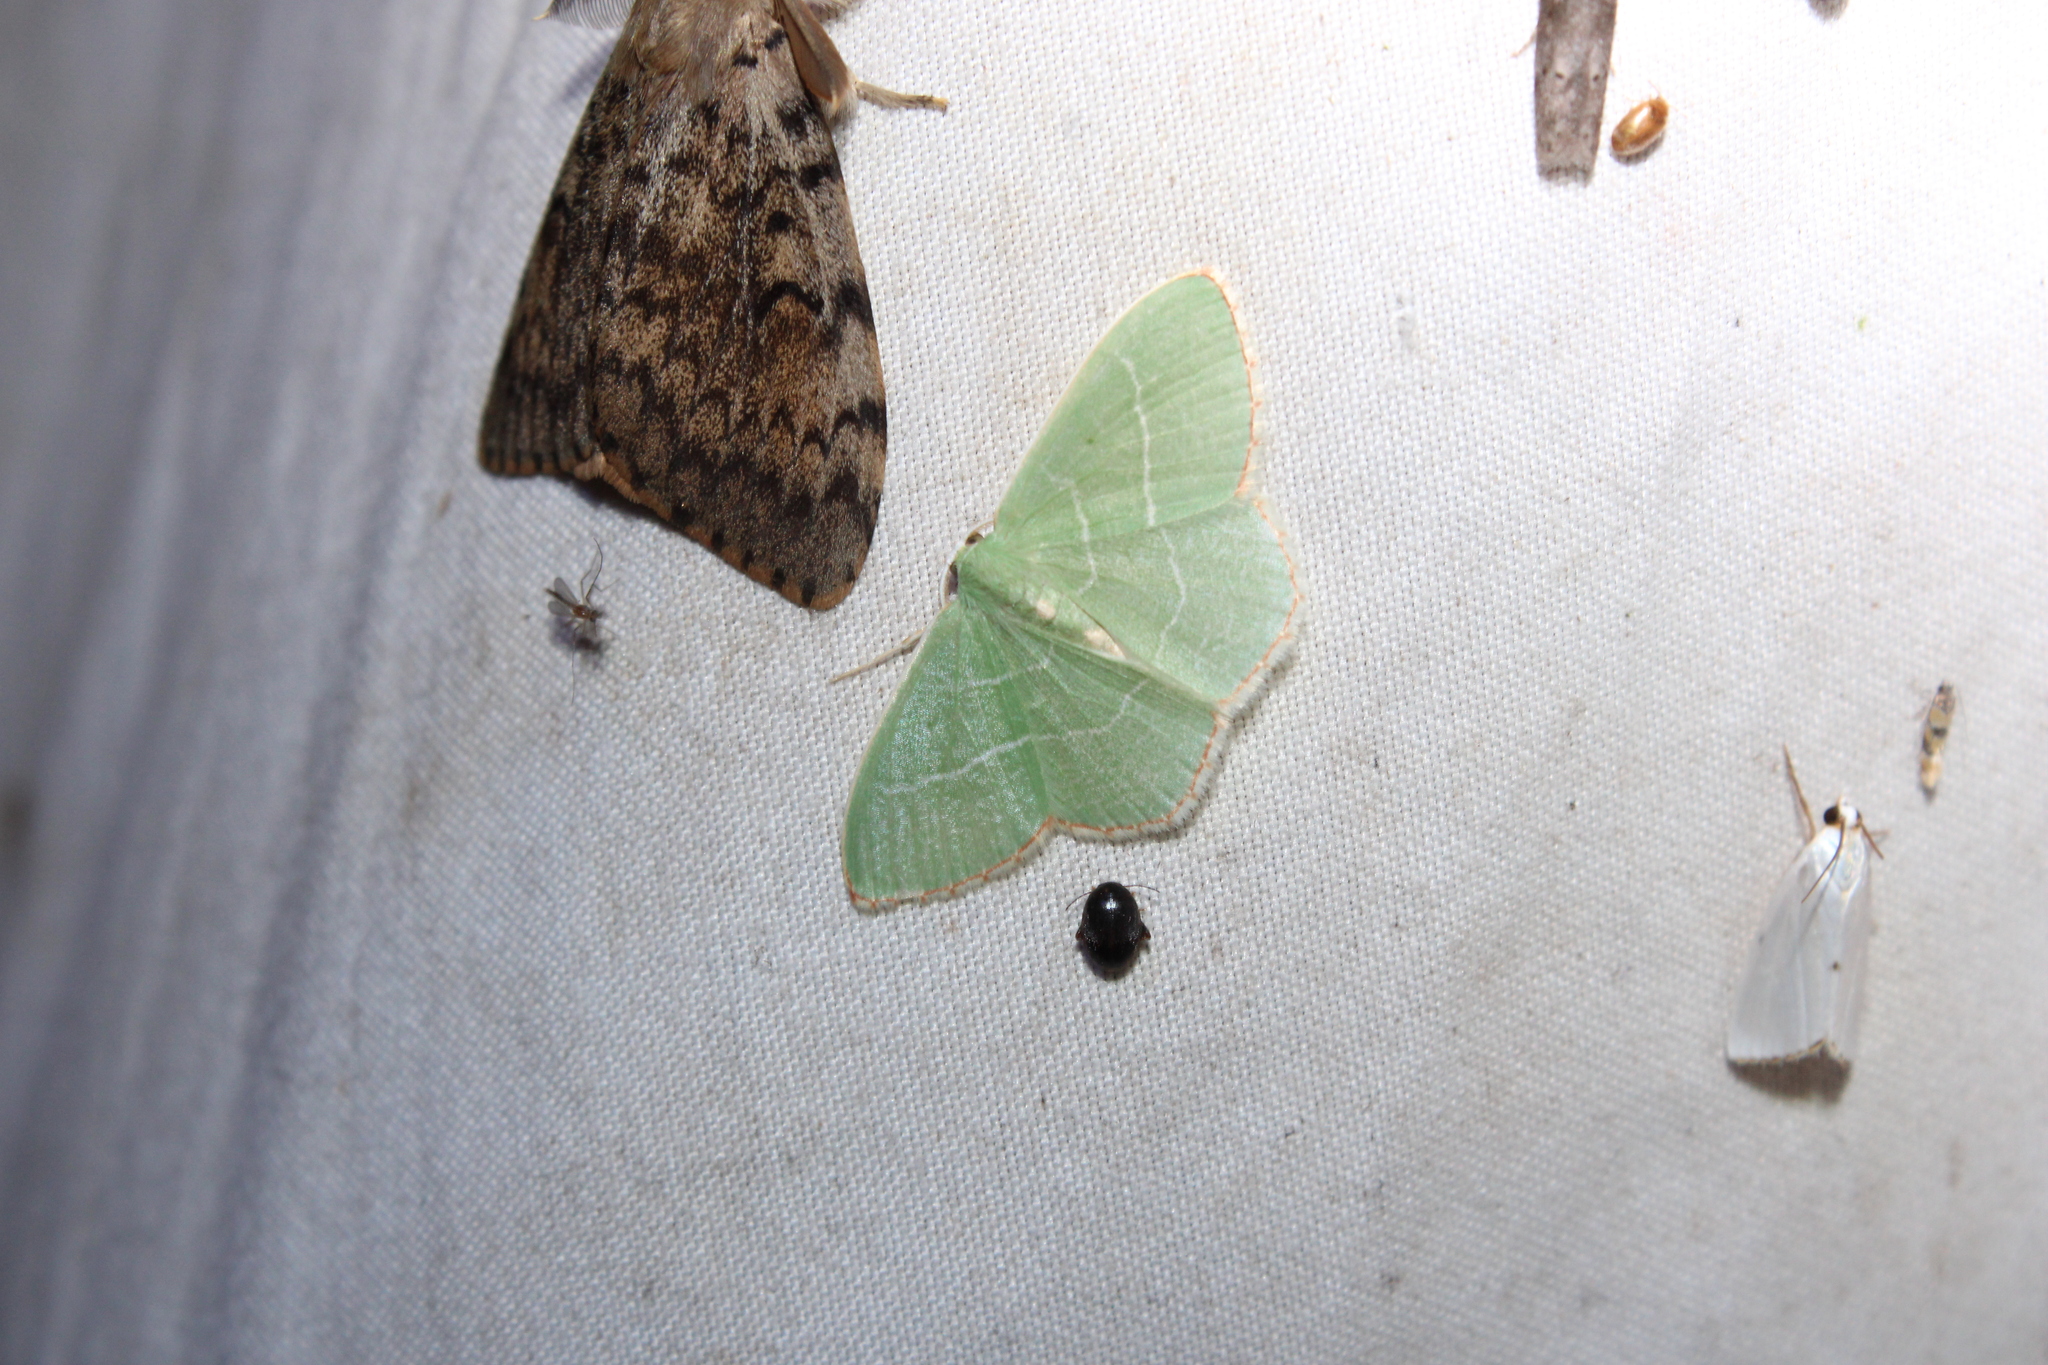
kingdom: Animalia
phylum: Arthropoda
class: Insecta
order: Lepidoptera
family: Geometridae
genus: Nemoria
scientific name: Nemoria bistriaria
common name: Red-fringed emerald
